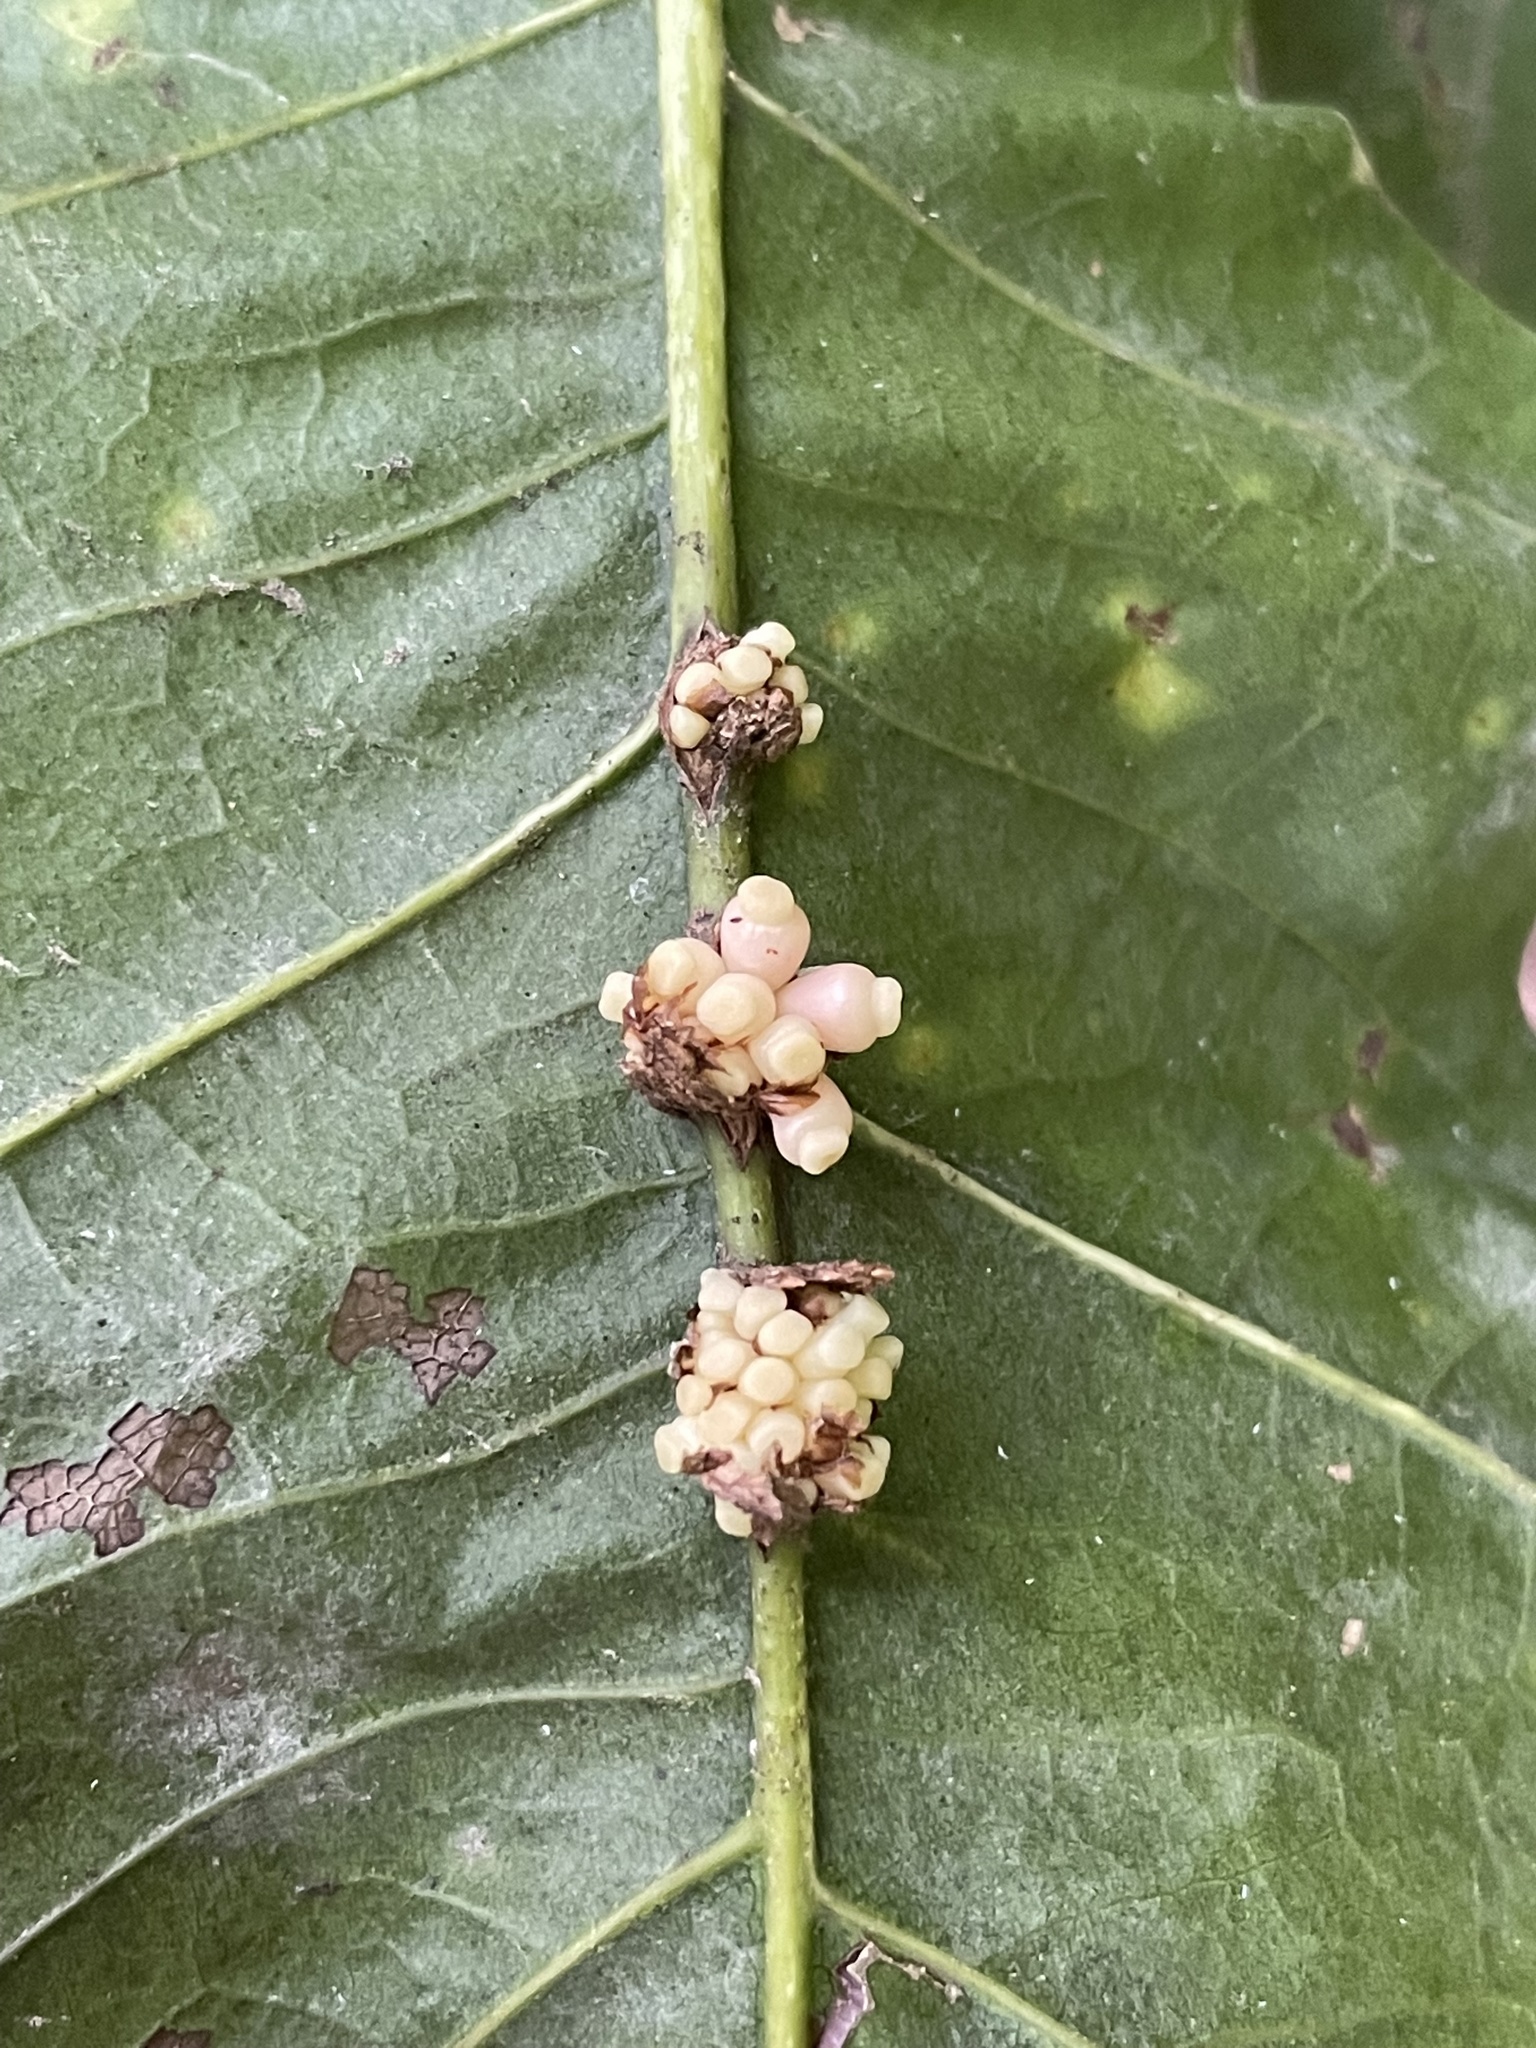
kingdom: Animalia
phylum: Arthropoda
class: Insecta
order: Hymenoptera
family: Cynipidae
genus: Kokkocynips
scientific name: Kokkocynips decidua
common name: Oak wheat gall
